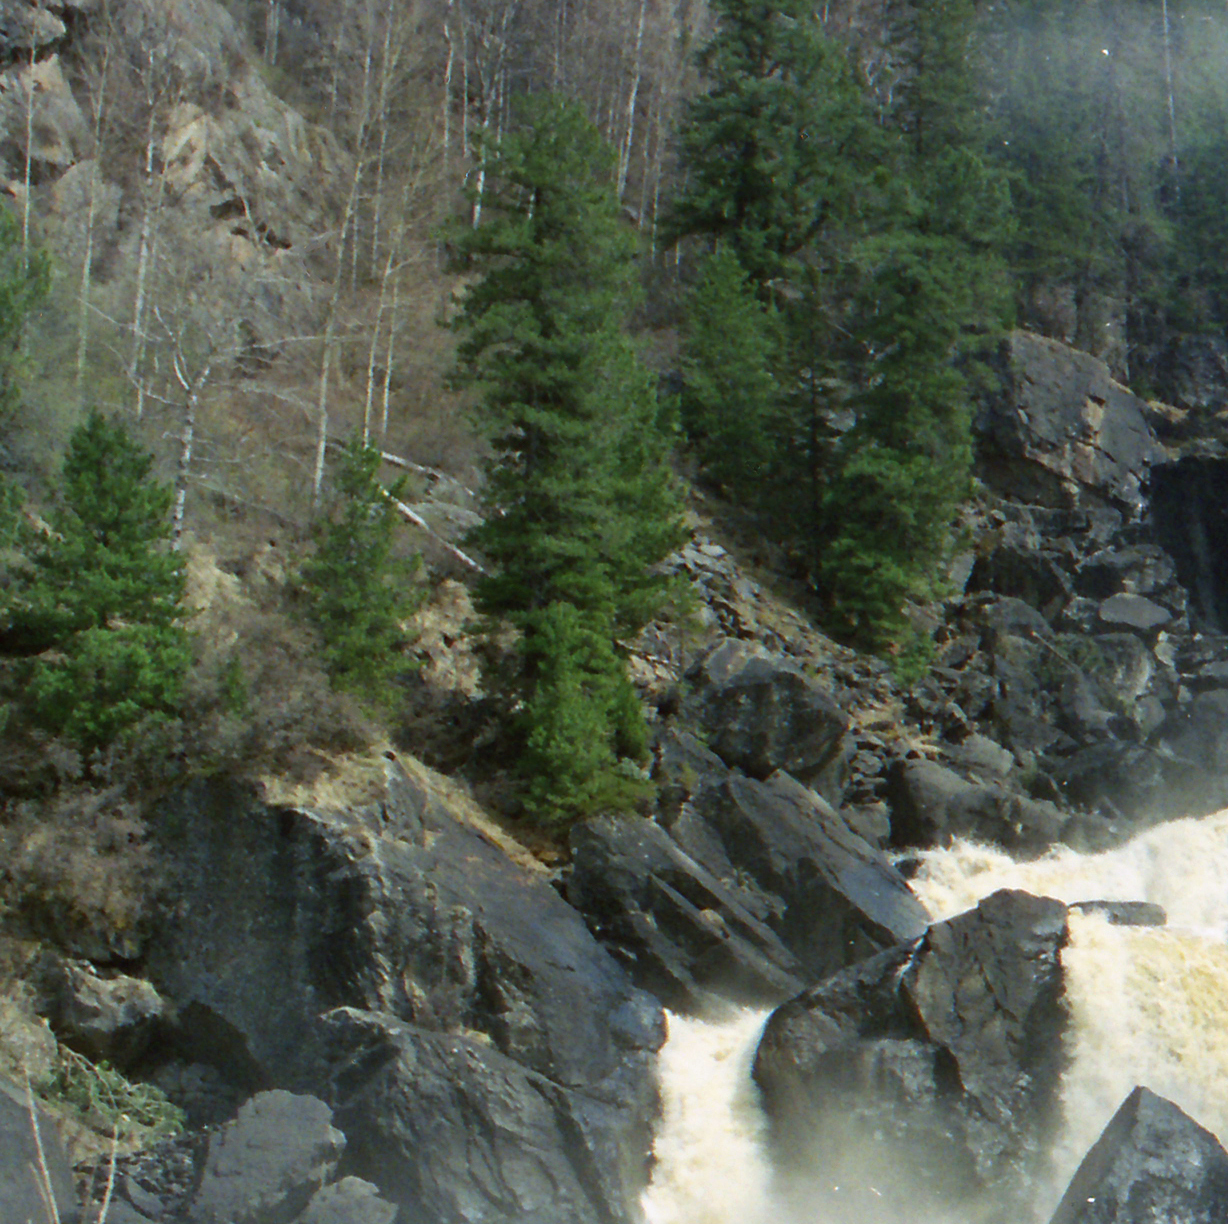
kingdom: Plantae
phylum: Tracheophyta
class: Pinopsida
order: Pinales
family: Pinaceae
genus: Pinus
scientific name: Pinus sibirica
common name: Siberian pine
